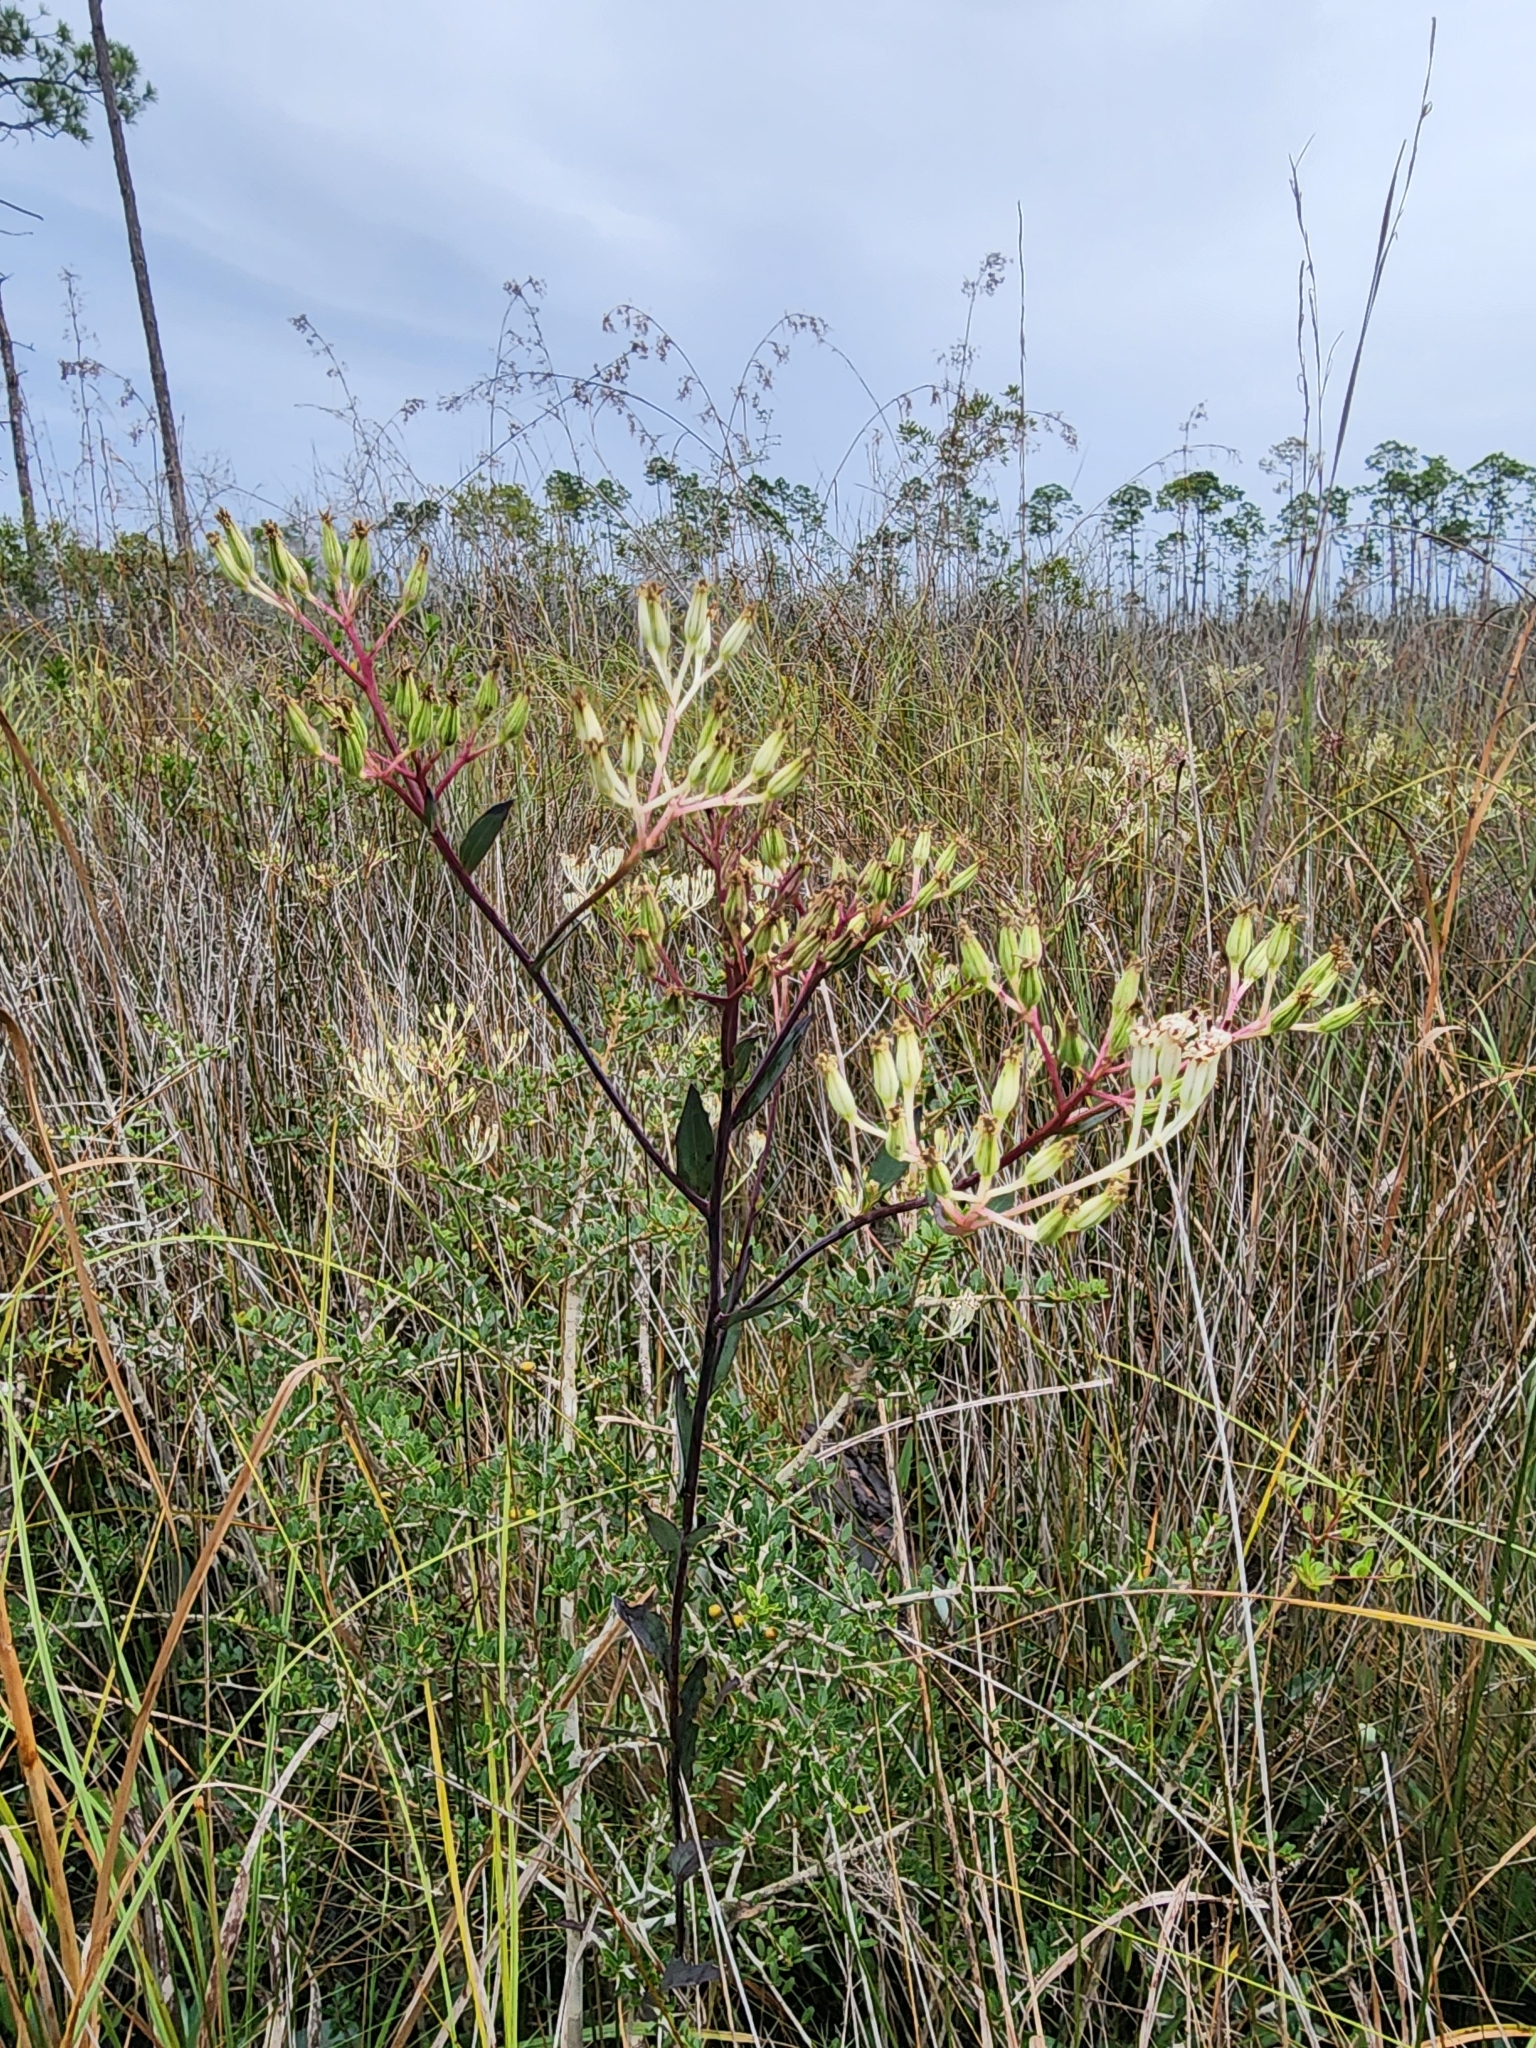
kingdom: Plantae
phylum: Tracheophyta
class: Magnoliopsida
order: Asterales
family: Asteraceae
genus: Arnoglossum
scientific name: Arnoglossum ovatum
